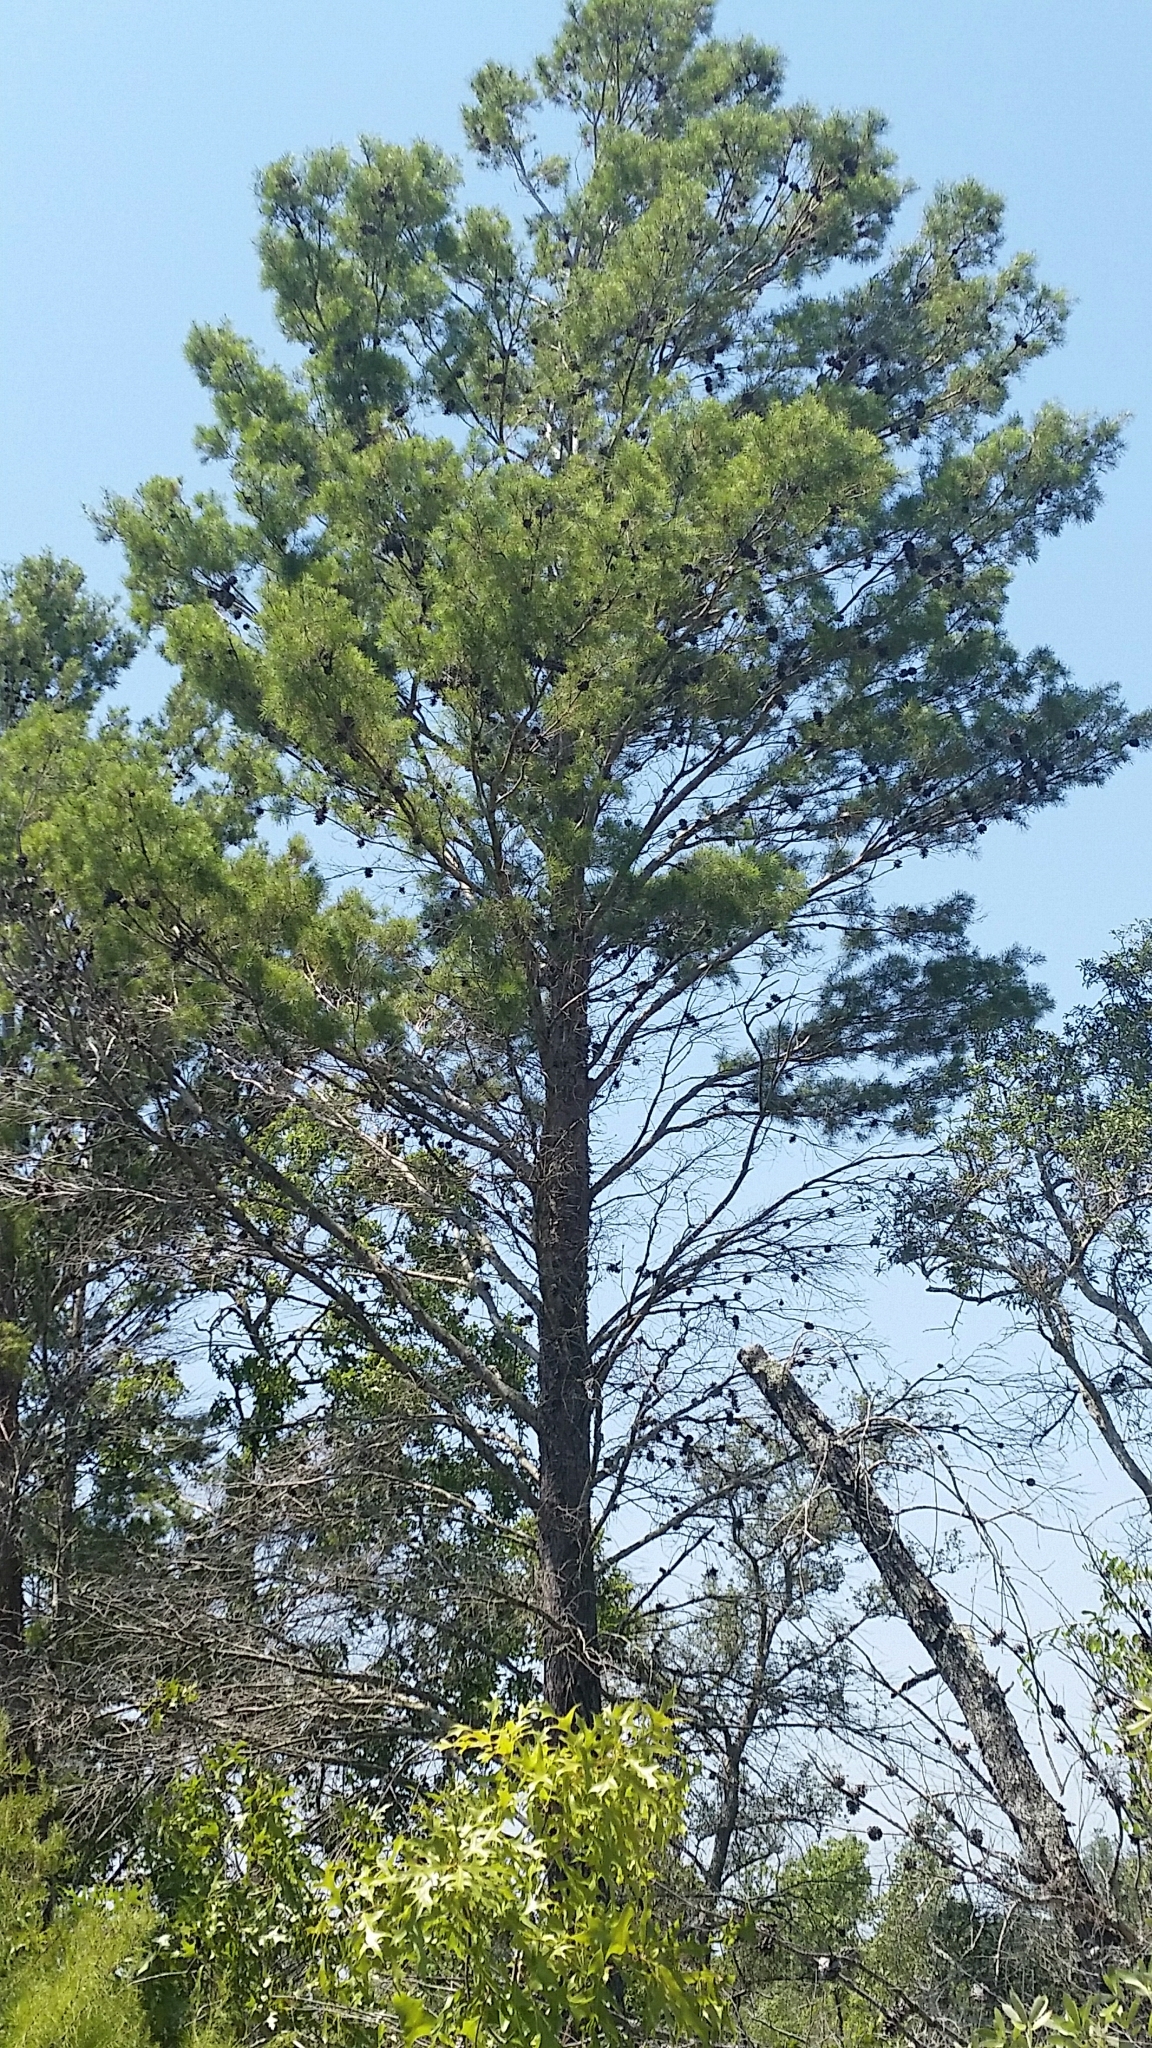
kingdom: Plantae
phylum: Tracheophyta
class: Pinopsida
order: Pinales
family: Pinaceae
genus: Pinus
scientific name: Pinus clausa
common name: Sand pine
